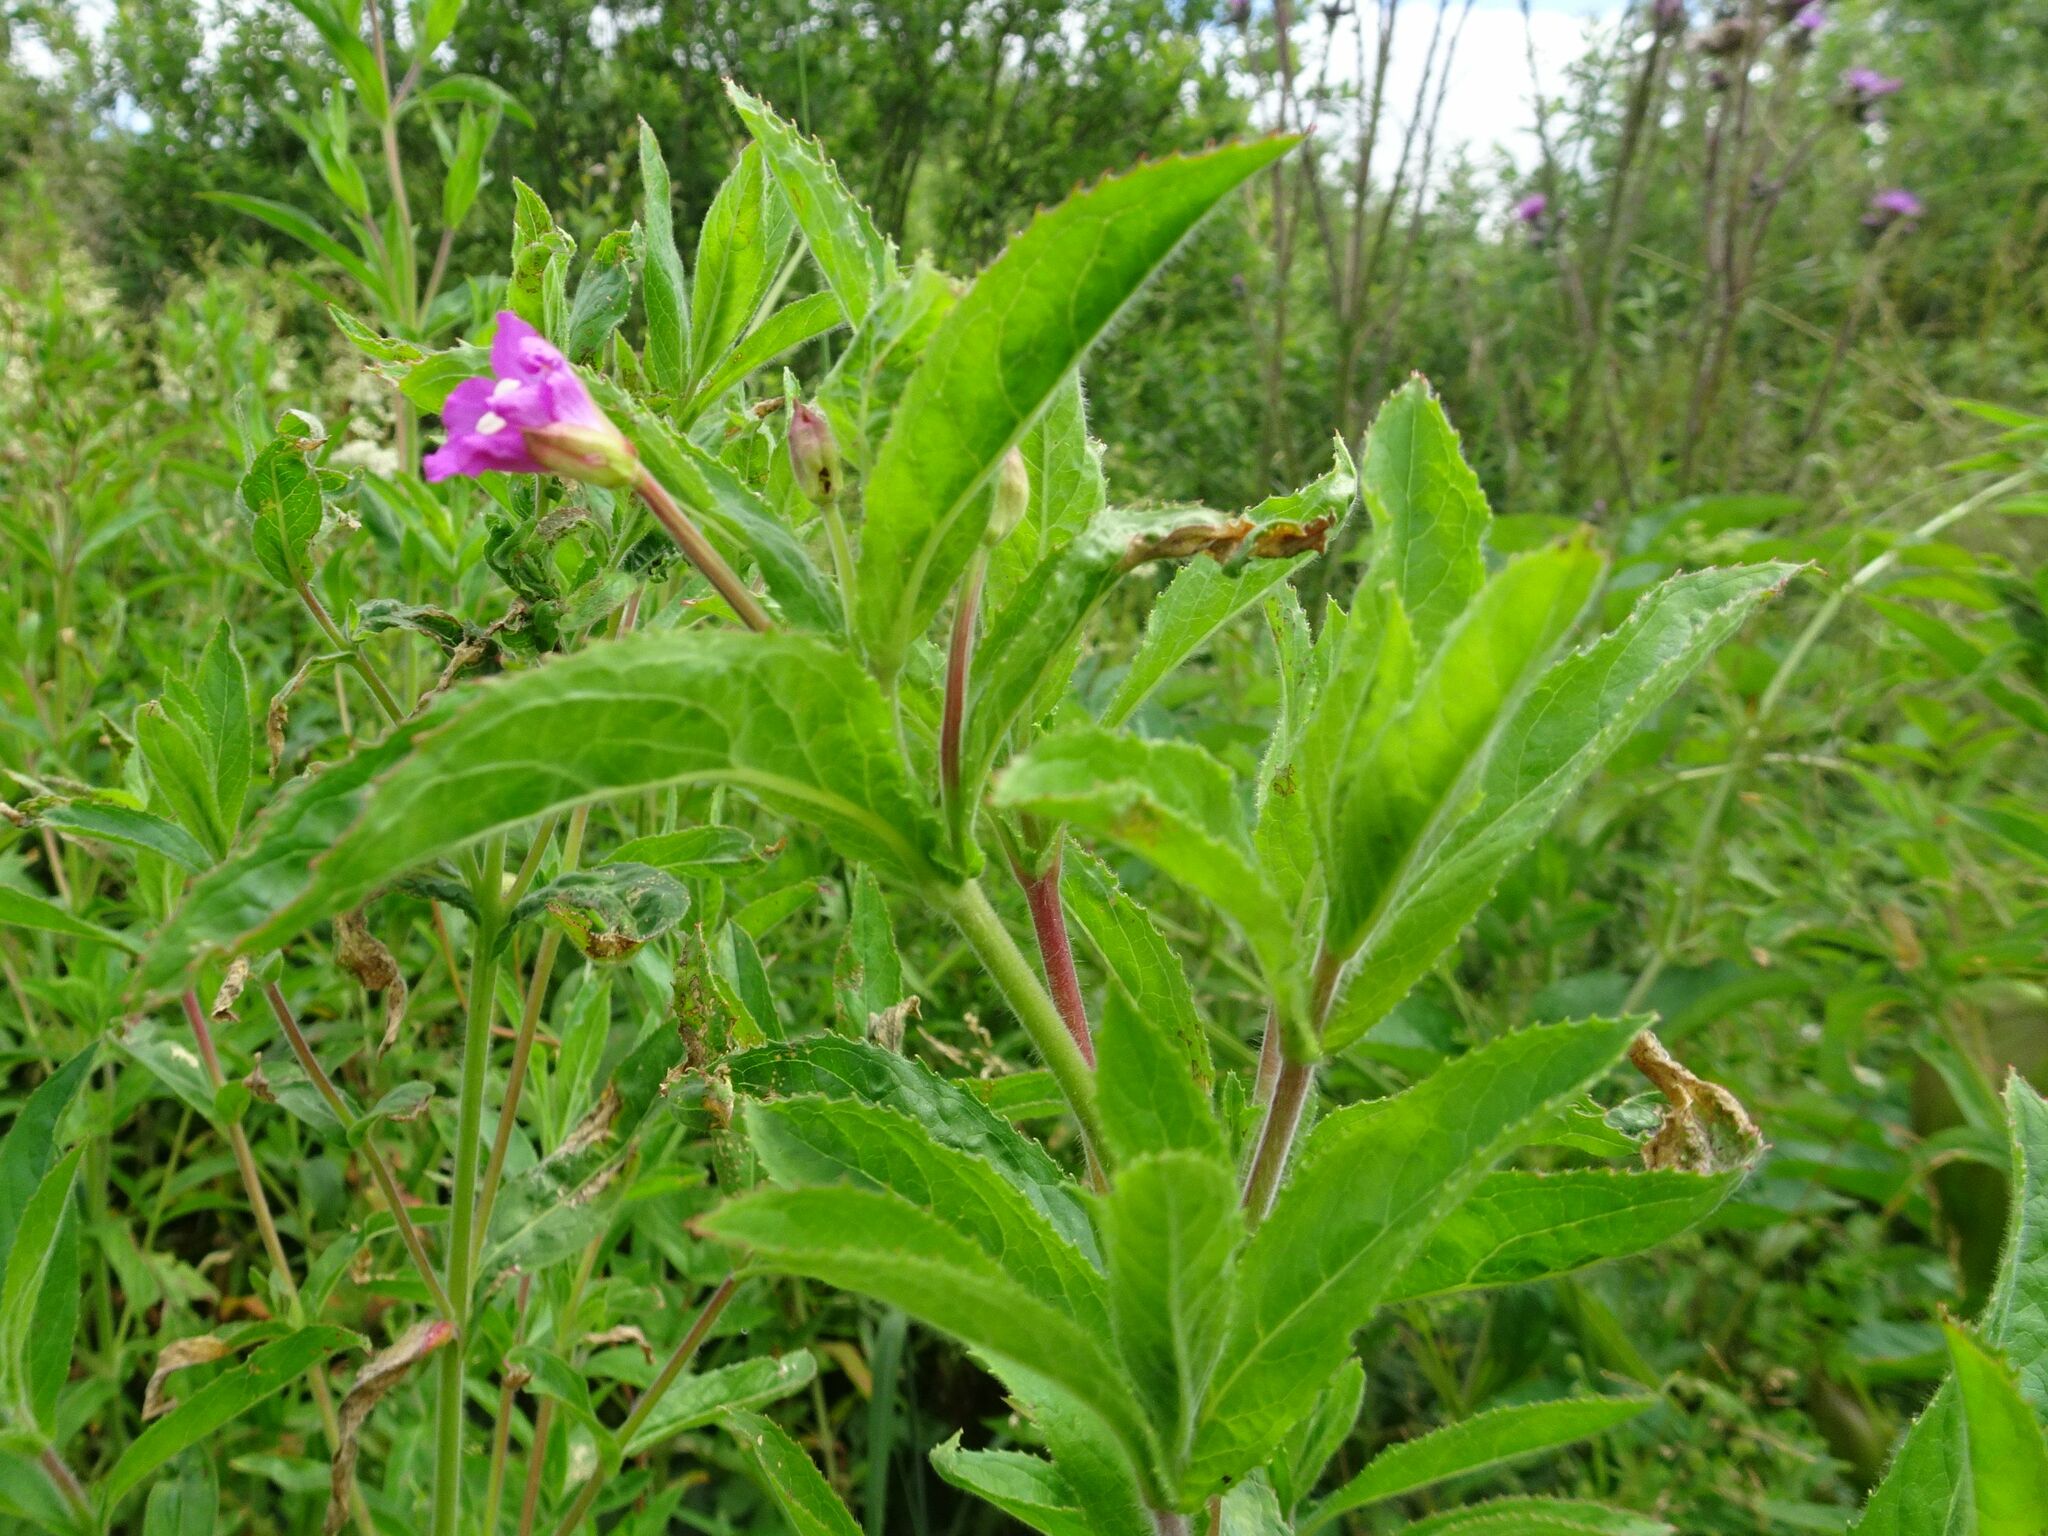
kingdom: Plantae
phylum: Tracheophyta
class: Magnoliopsida
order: Myrtales
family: Onagraceae
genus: Epilobium
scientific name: Epilobium hirsutum
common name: Great willowherb
